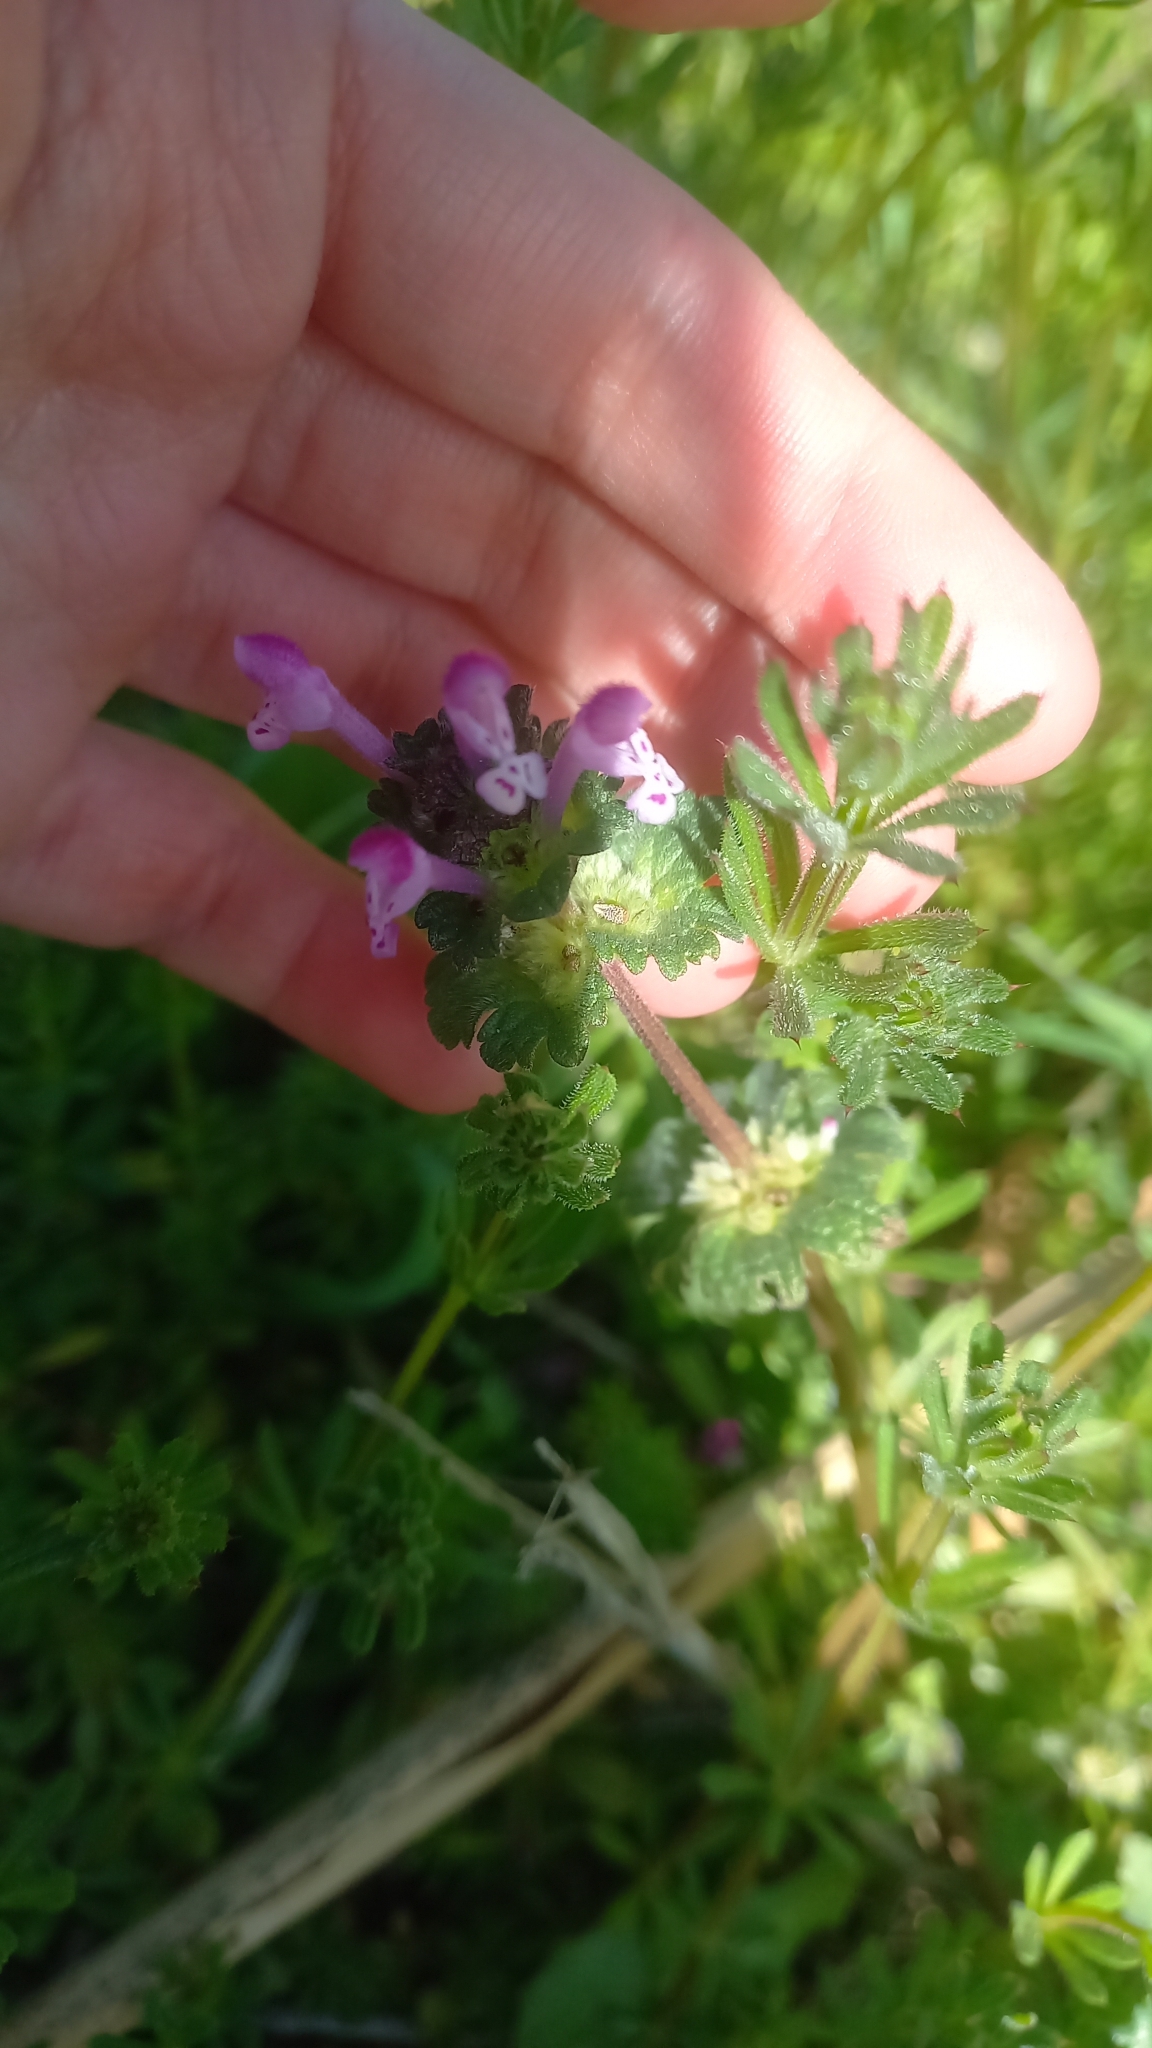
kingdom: Plantae
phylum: Tracheophyta
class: Magnoliopsida
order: Lamiales
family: Lamiaceae
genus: Lamium
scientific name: Lamium amplexicaule
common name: Henbit dead-nettle
